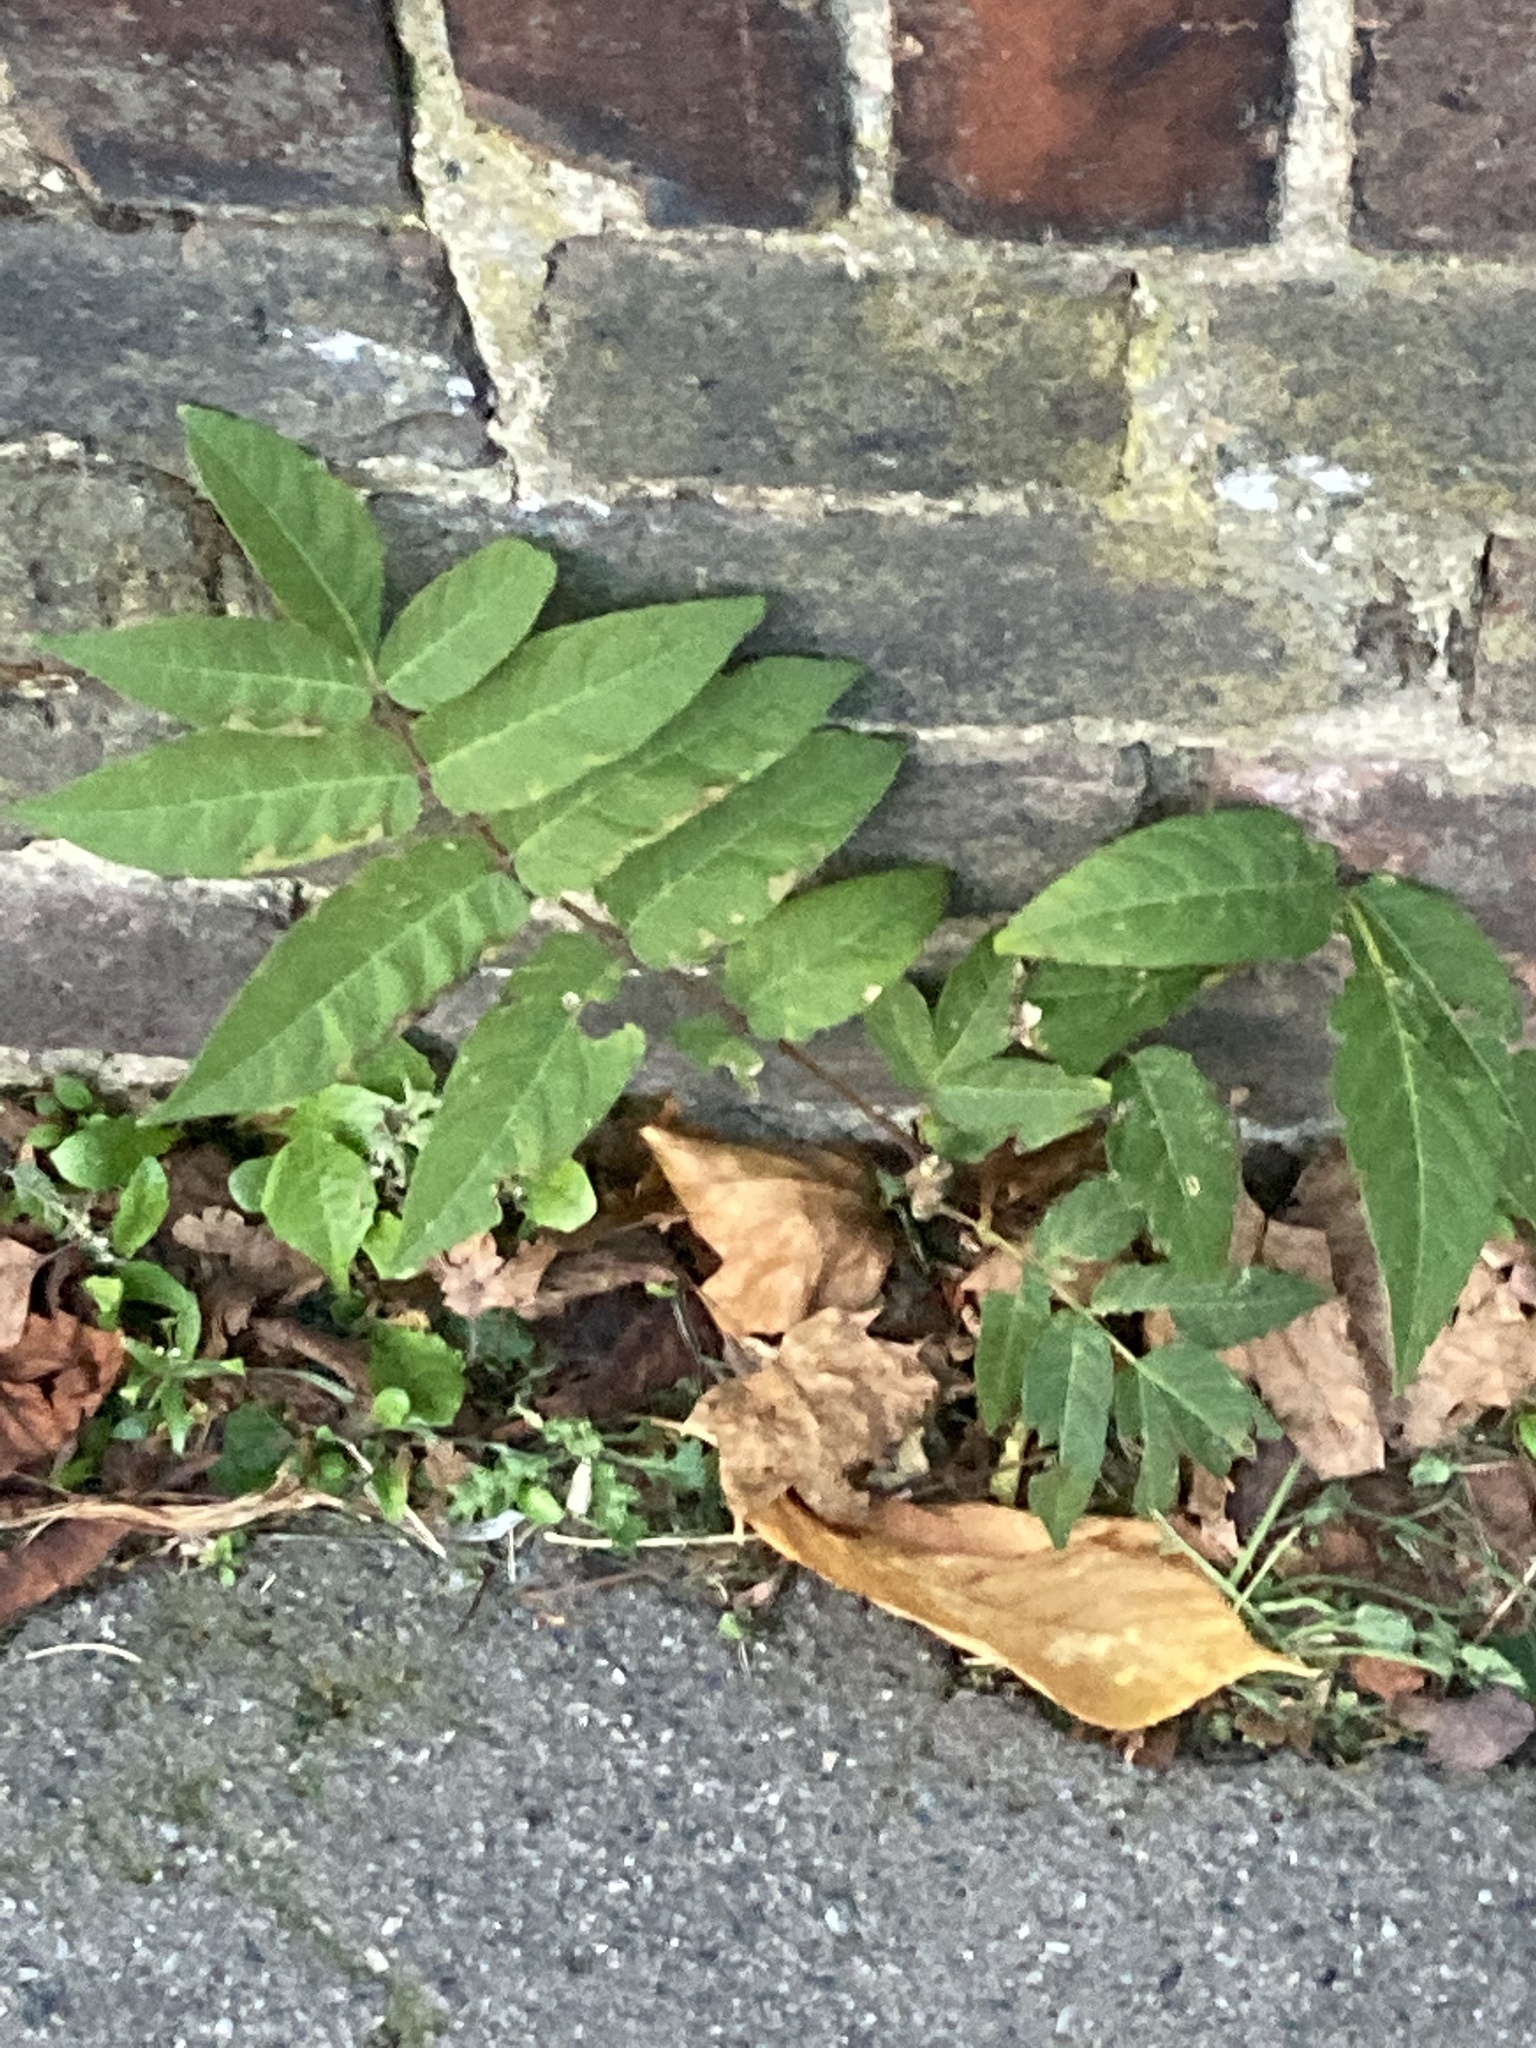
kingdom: Plantae
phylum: Tracheophyta
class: Magnoliopsida
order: Sapindales
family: Simaroubaceae
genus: Ailanthus
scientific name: Ailanthus altissima
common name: Tree-of-heaven
